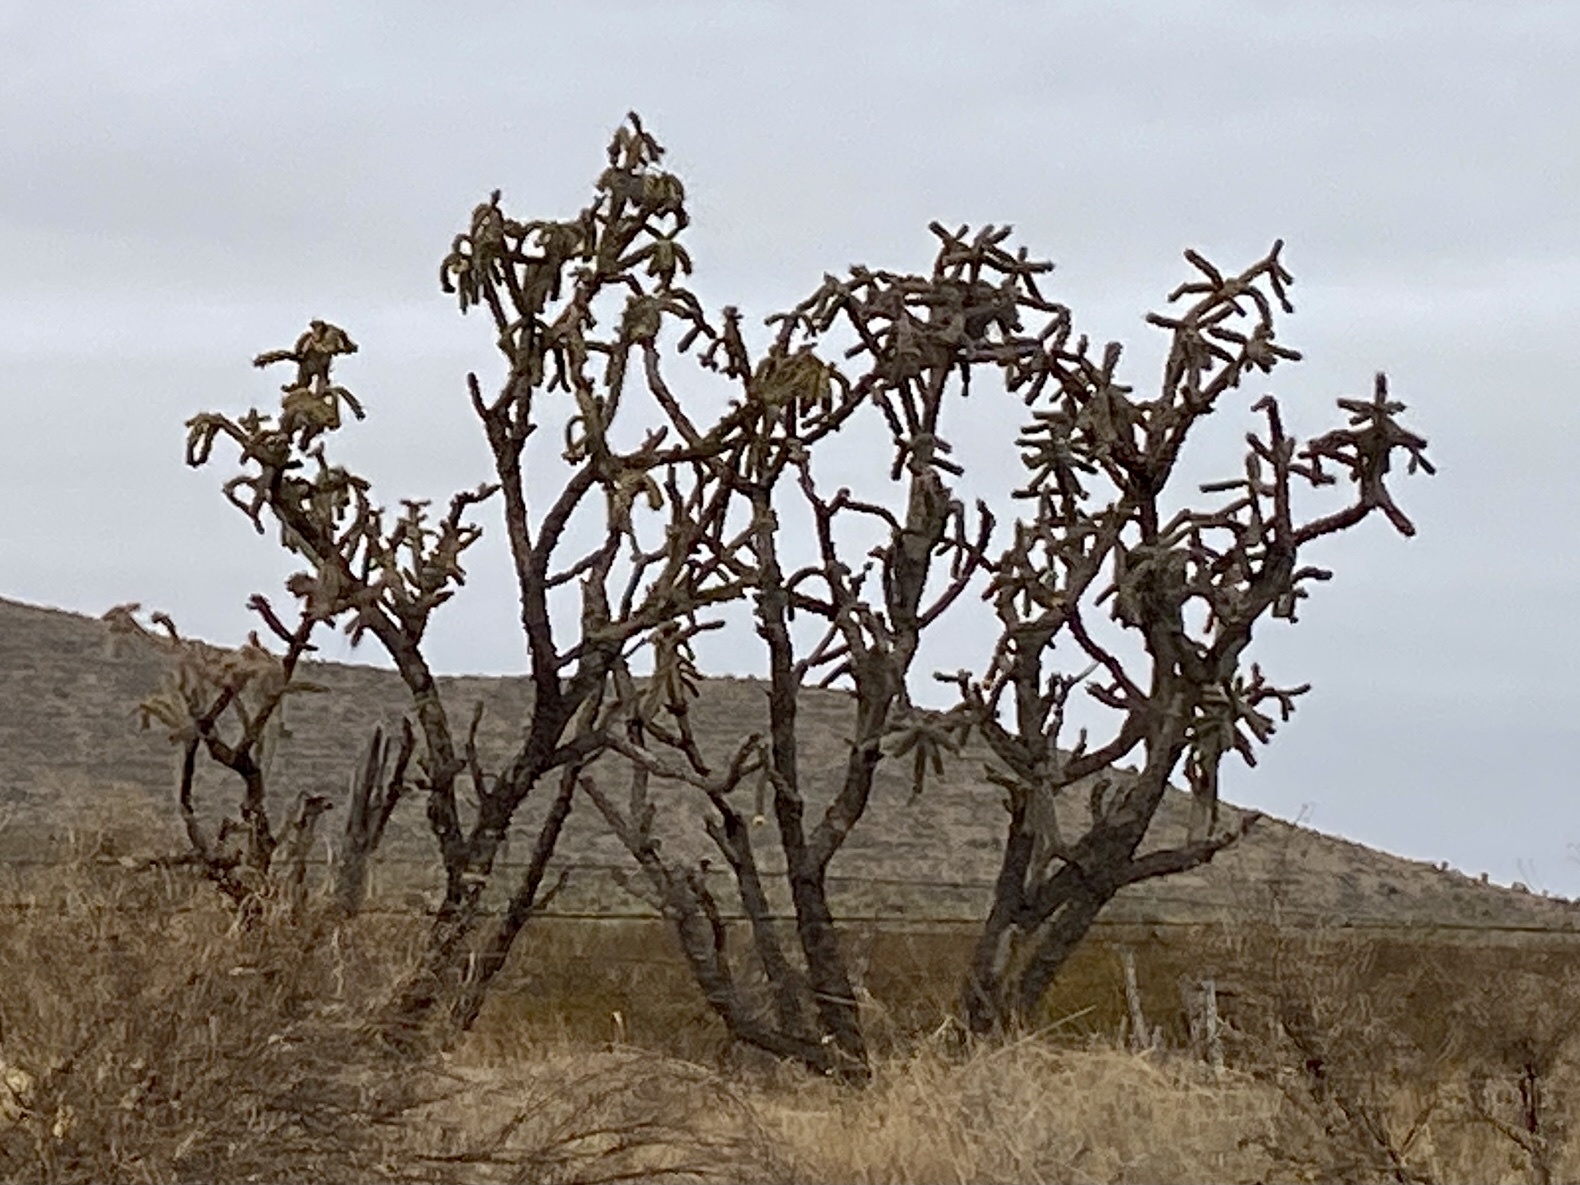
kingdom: Plantae
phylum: Tracheophyta
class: Magnoliopsida
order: Caryophyllales
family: Cactaceae
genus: Cylindropuntia
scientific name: Cylindropuntia imbricata
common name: Candelabrum cactus
